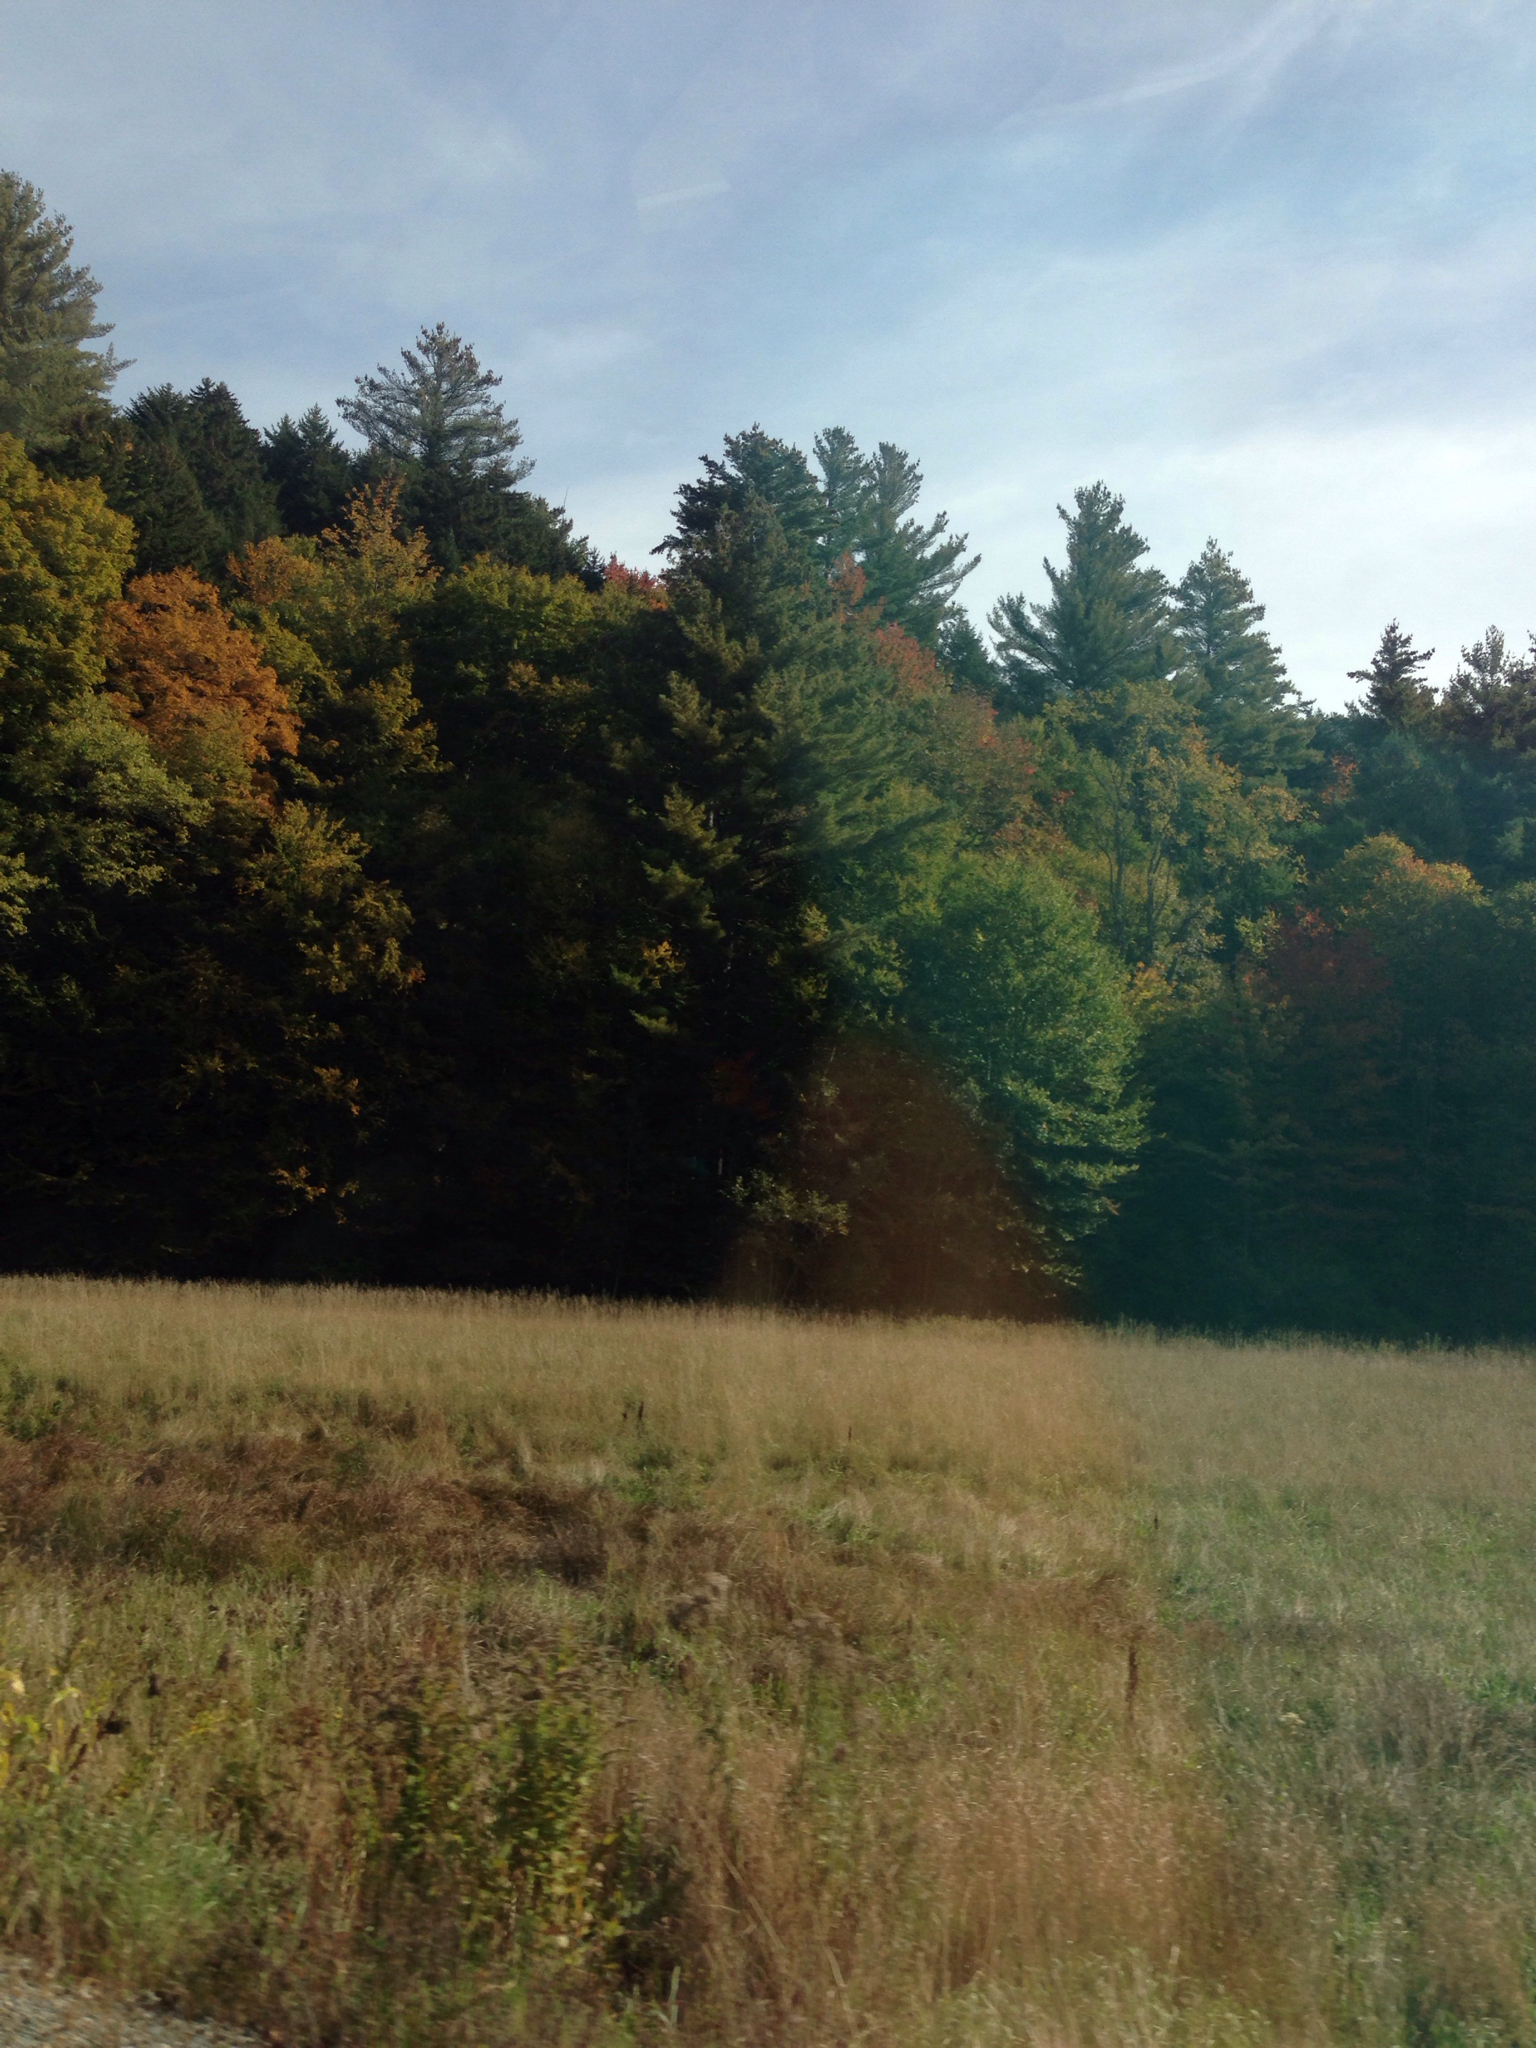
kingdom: Plantae
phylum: Tracheophyta
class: Pinopsida
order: Pinales
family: Pinaceae
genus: Pinus
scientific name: Pinus strobus
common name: Weymouth pine
